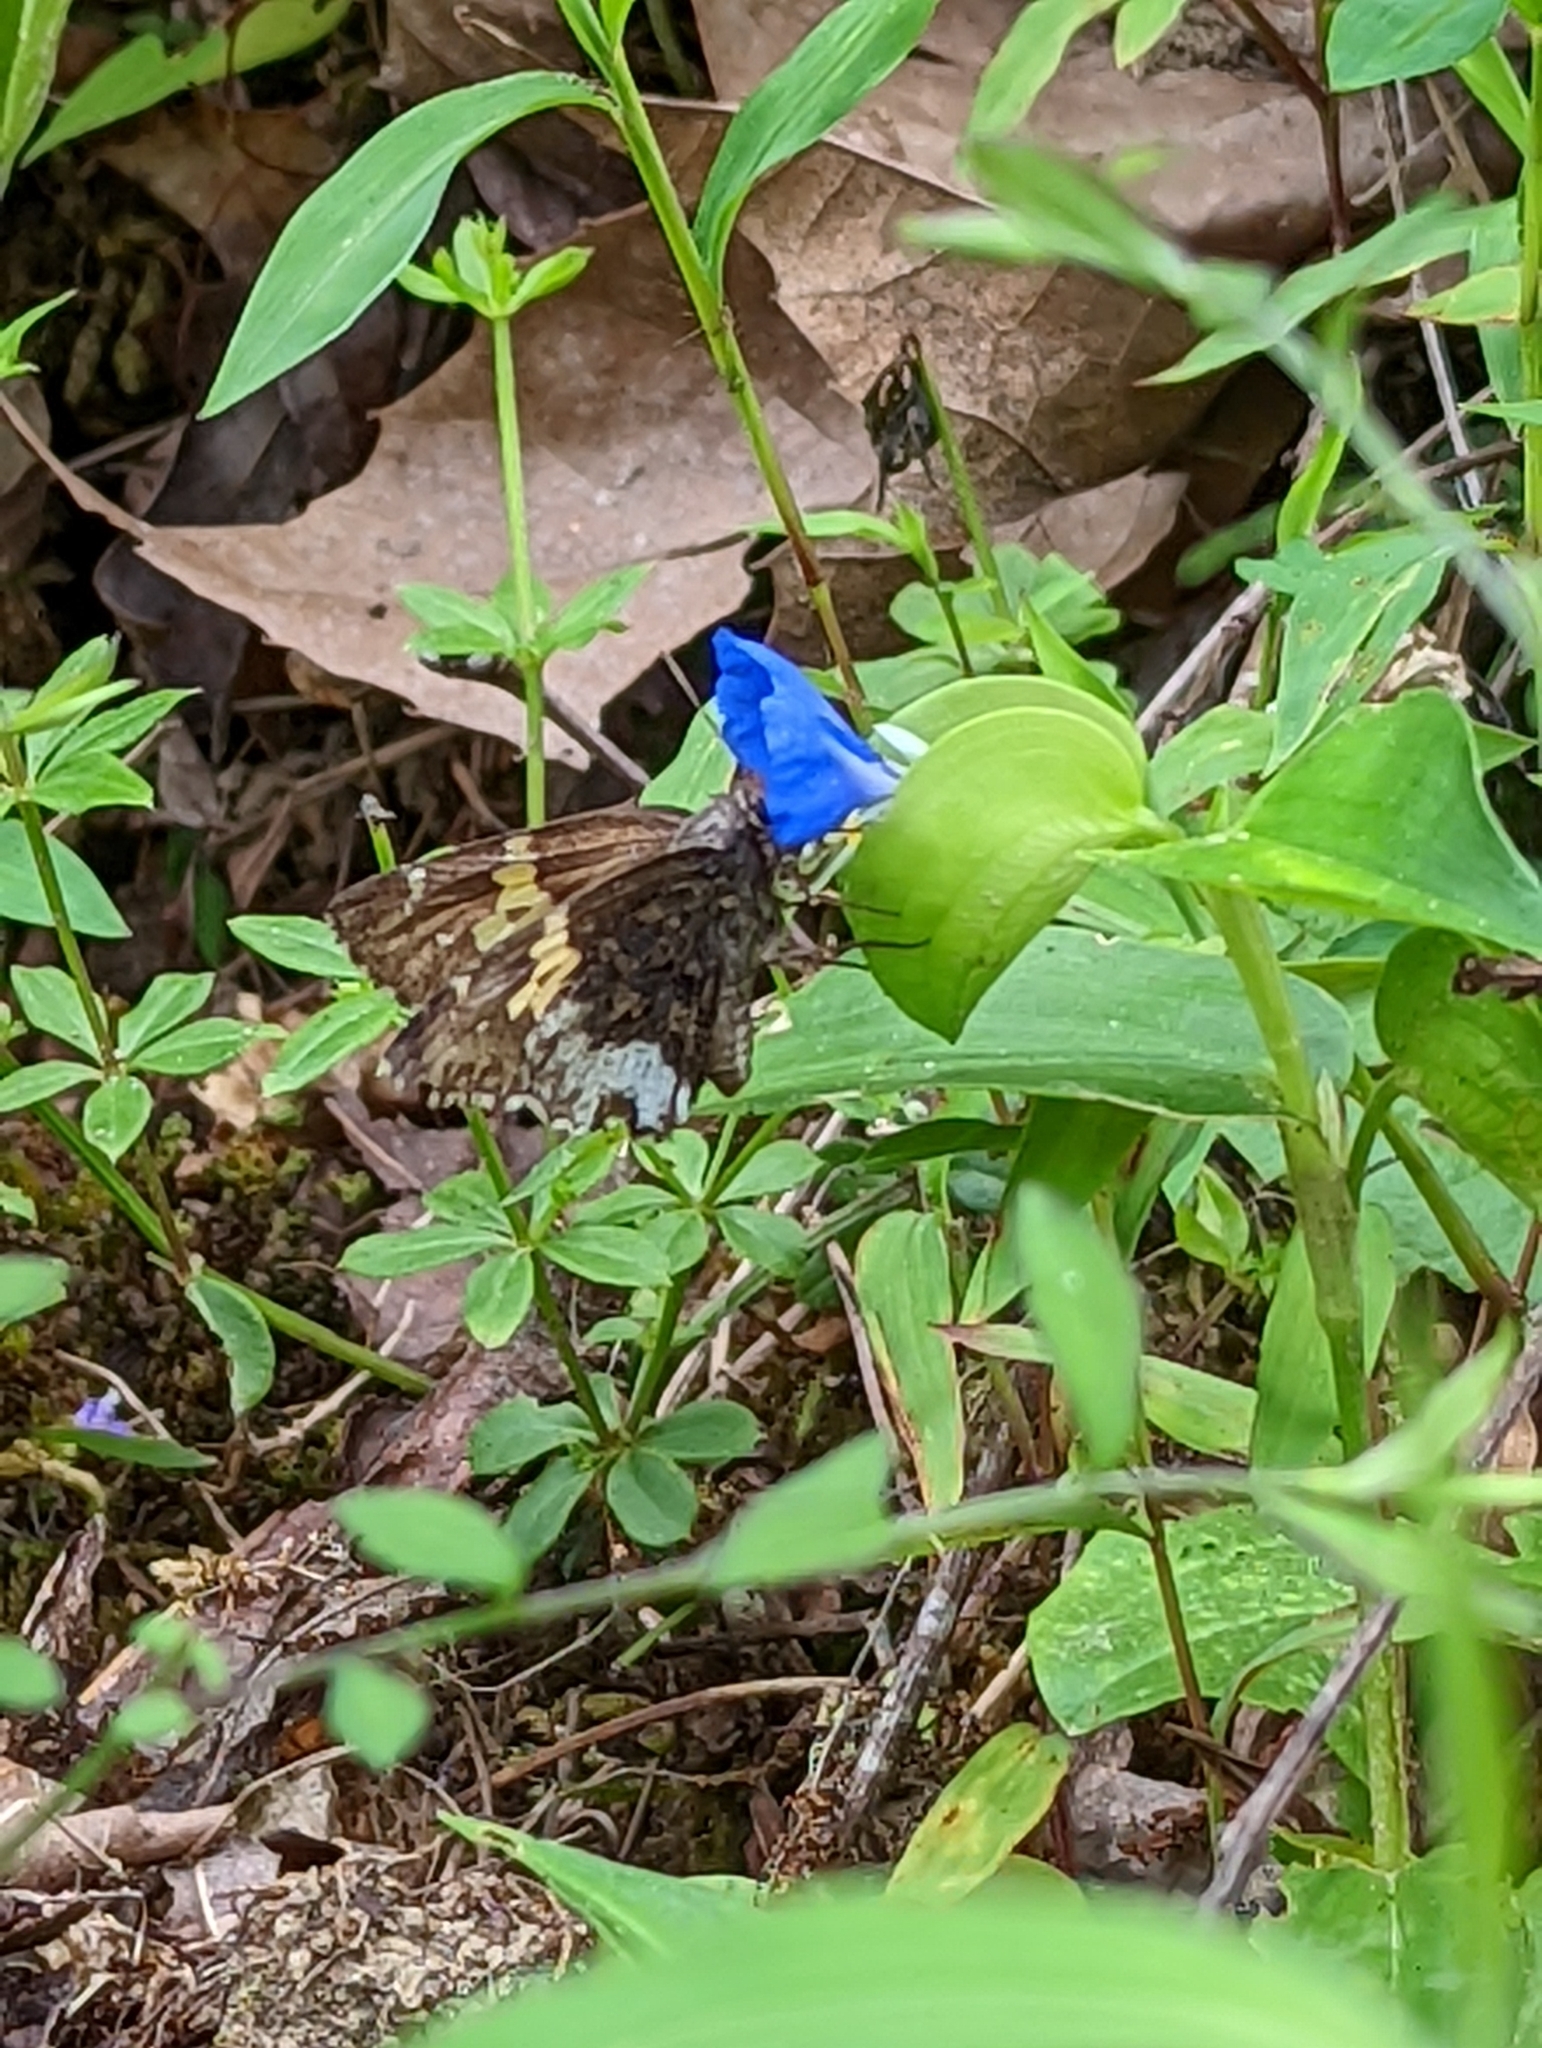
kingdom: Animalia
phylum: Arthropoda
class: Insecta
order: Lepidoptera
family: Hesperiidae
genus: Thorybes
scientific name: Thorybes lyciades
